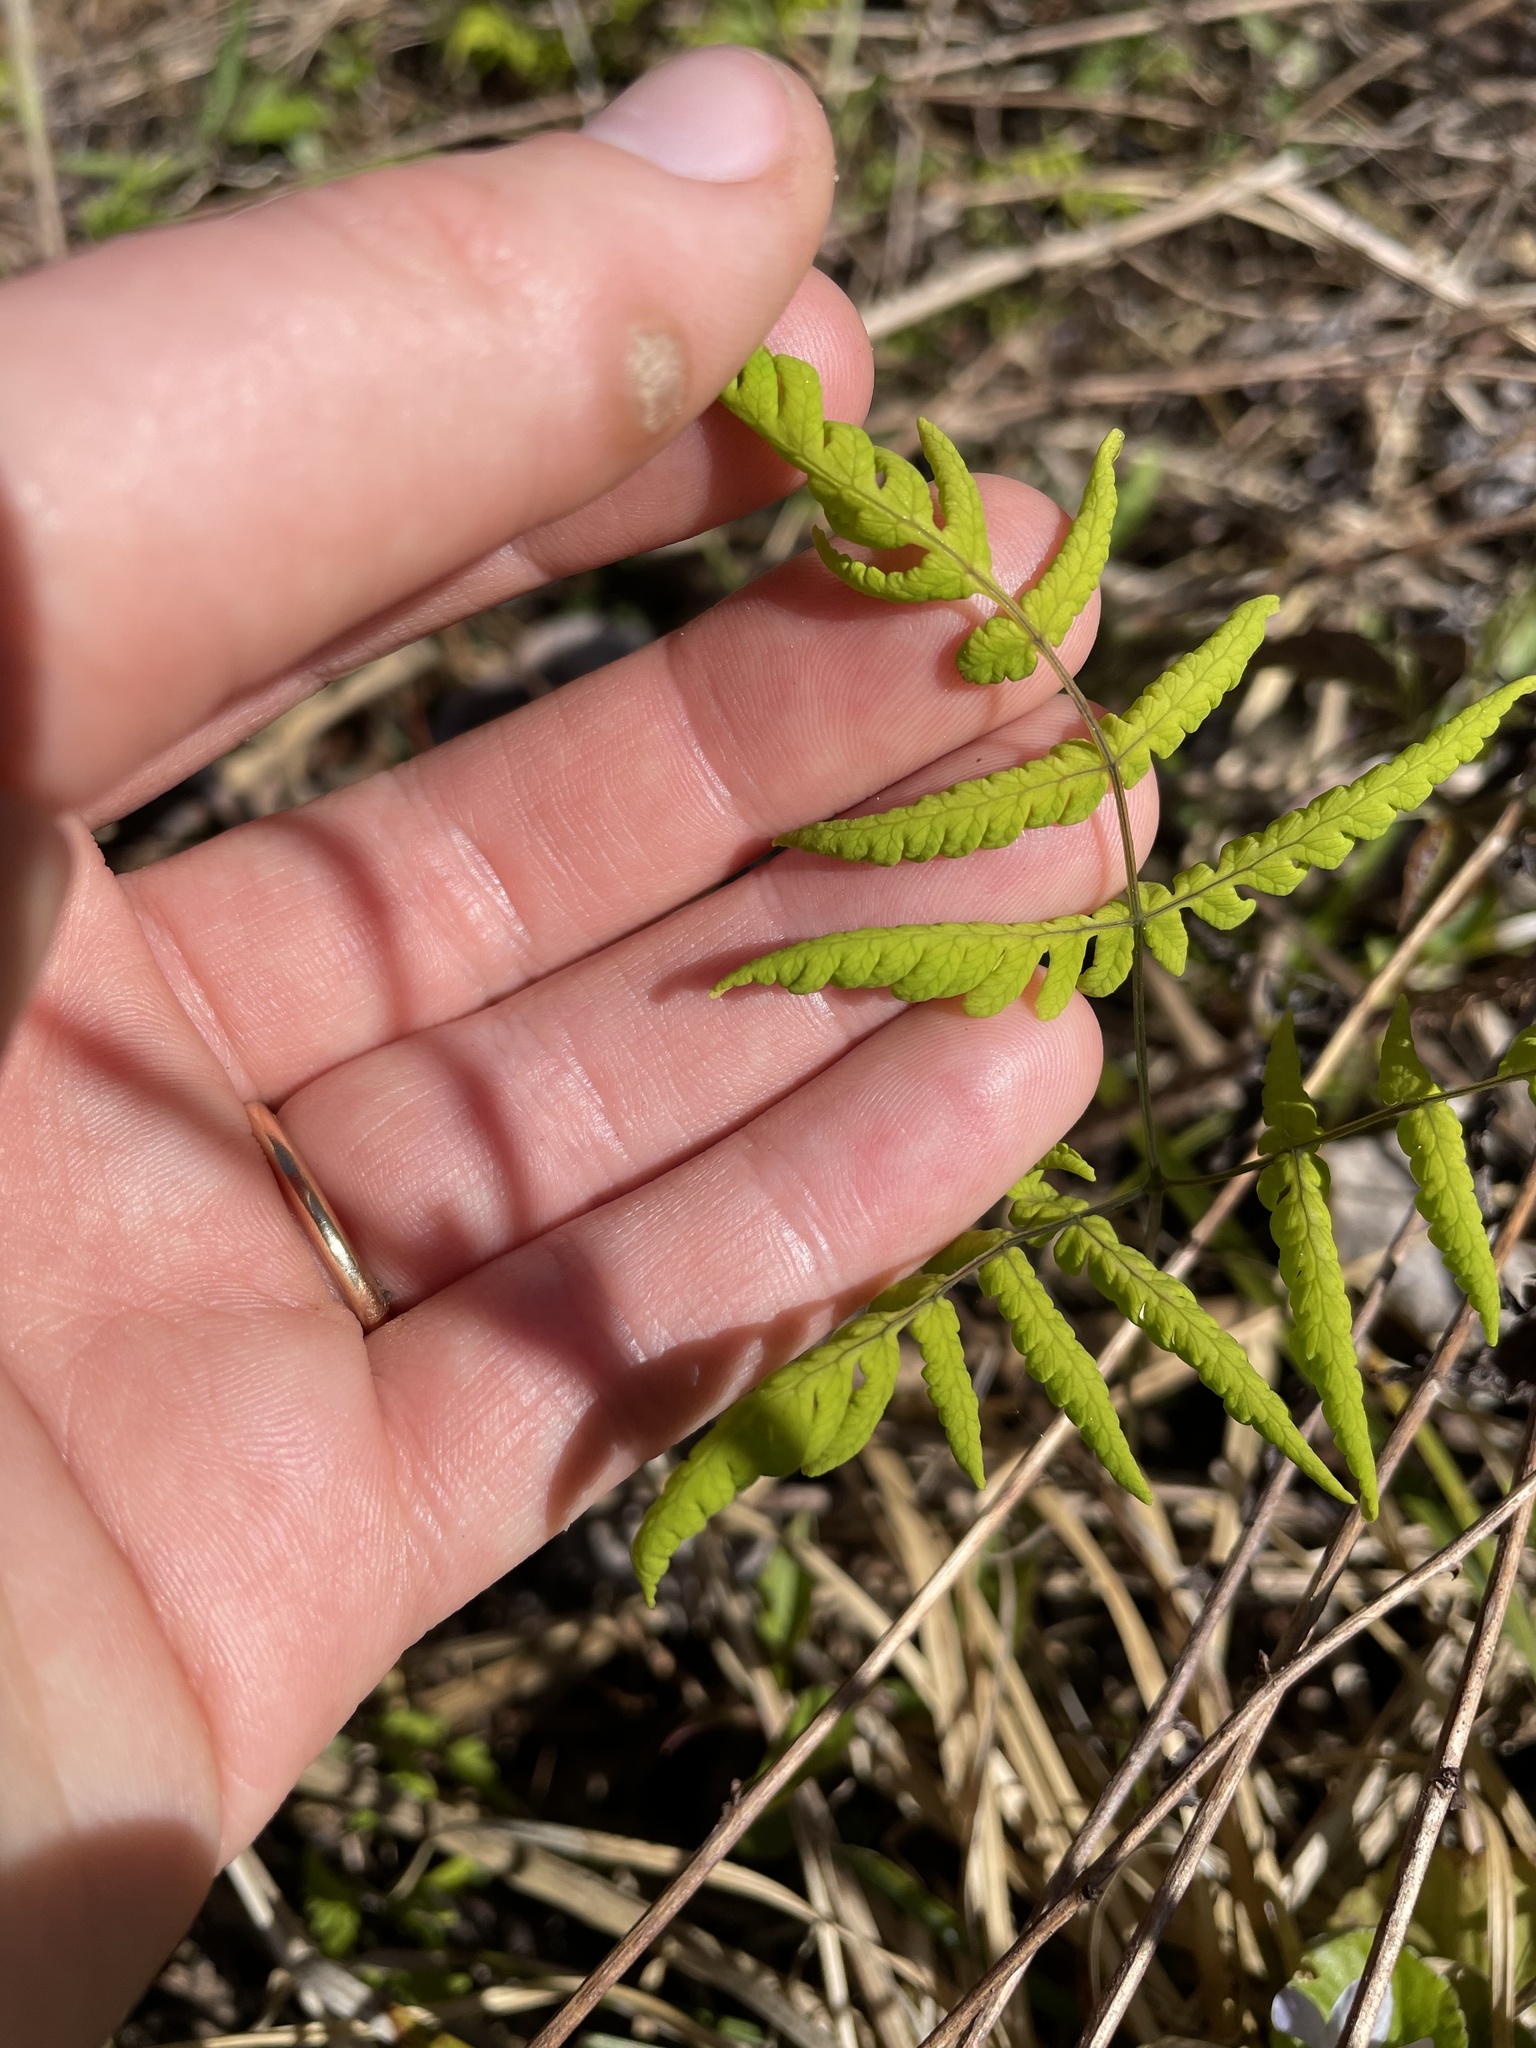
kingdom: Plantae
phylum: Tracheophyta
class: Polypodiopsida
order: Polypodiales
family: Cystopteridaceae
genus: Gymnocarpium
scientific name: Gymnocarpium dryopteris
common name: Oak fern
